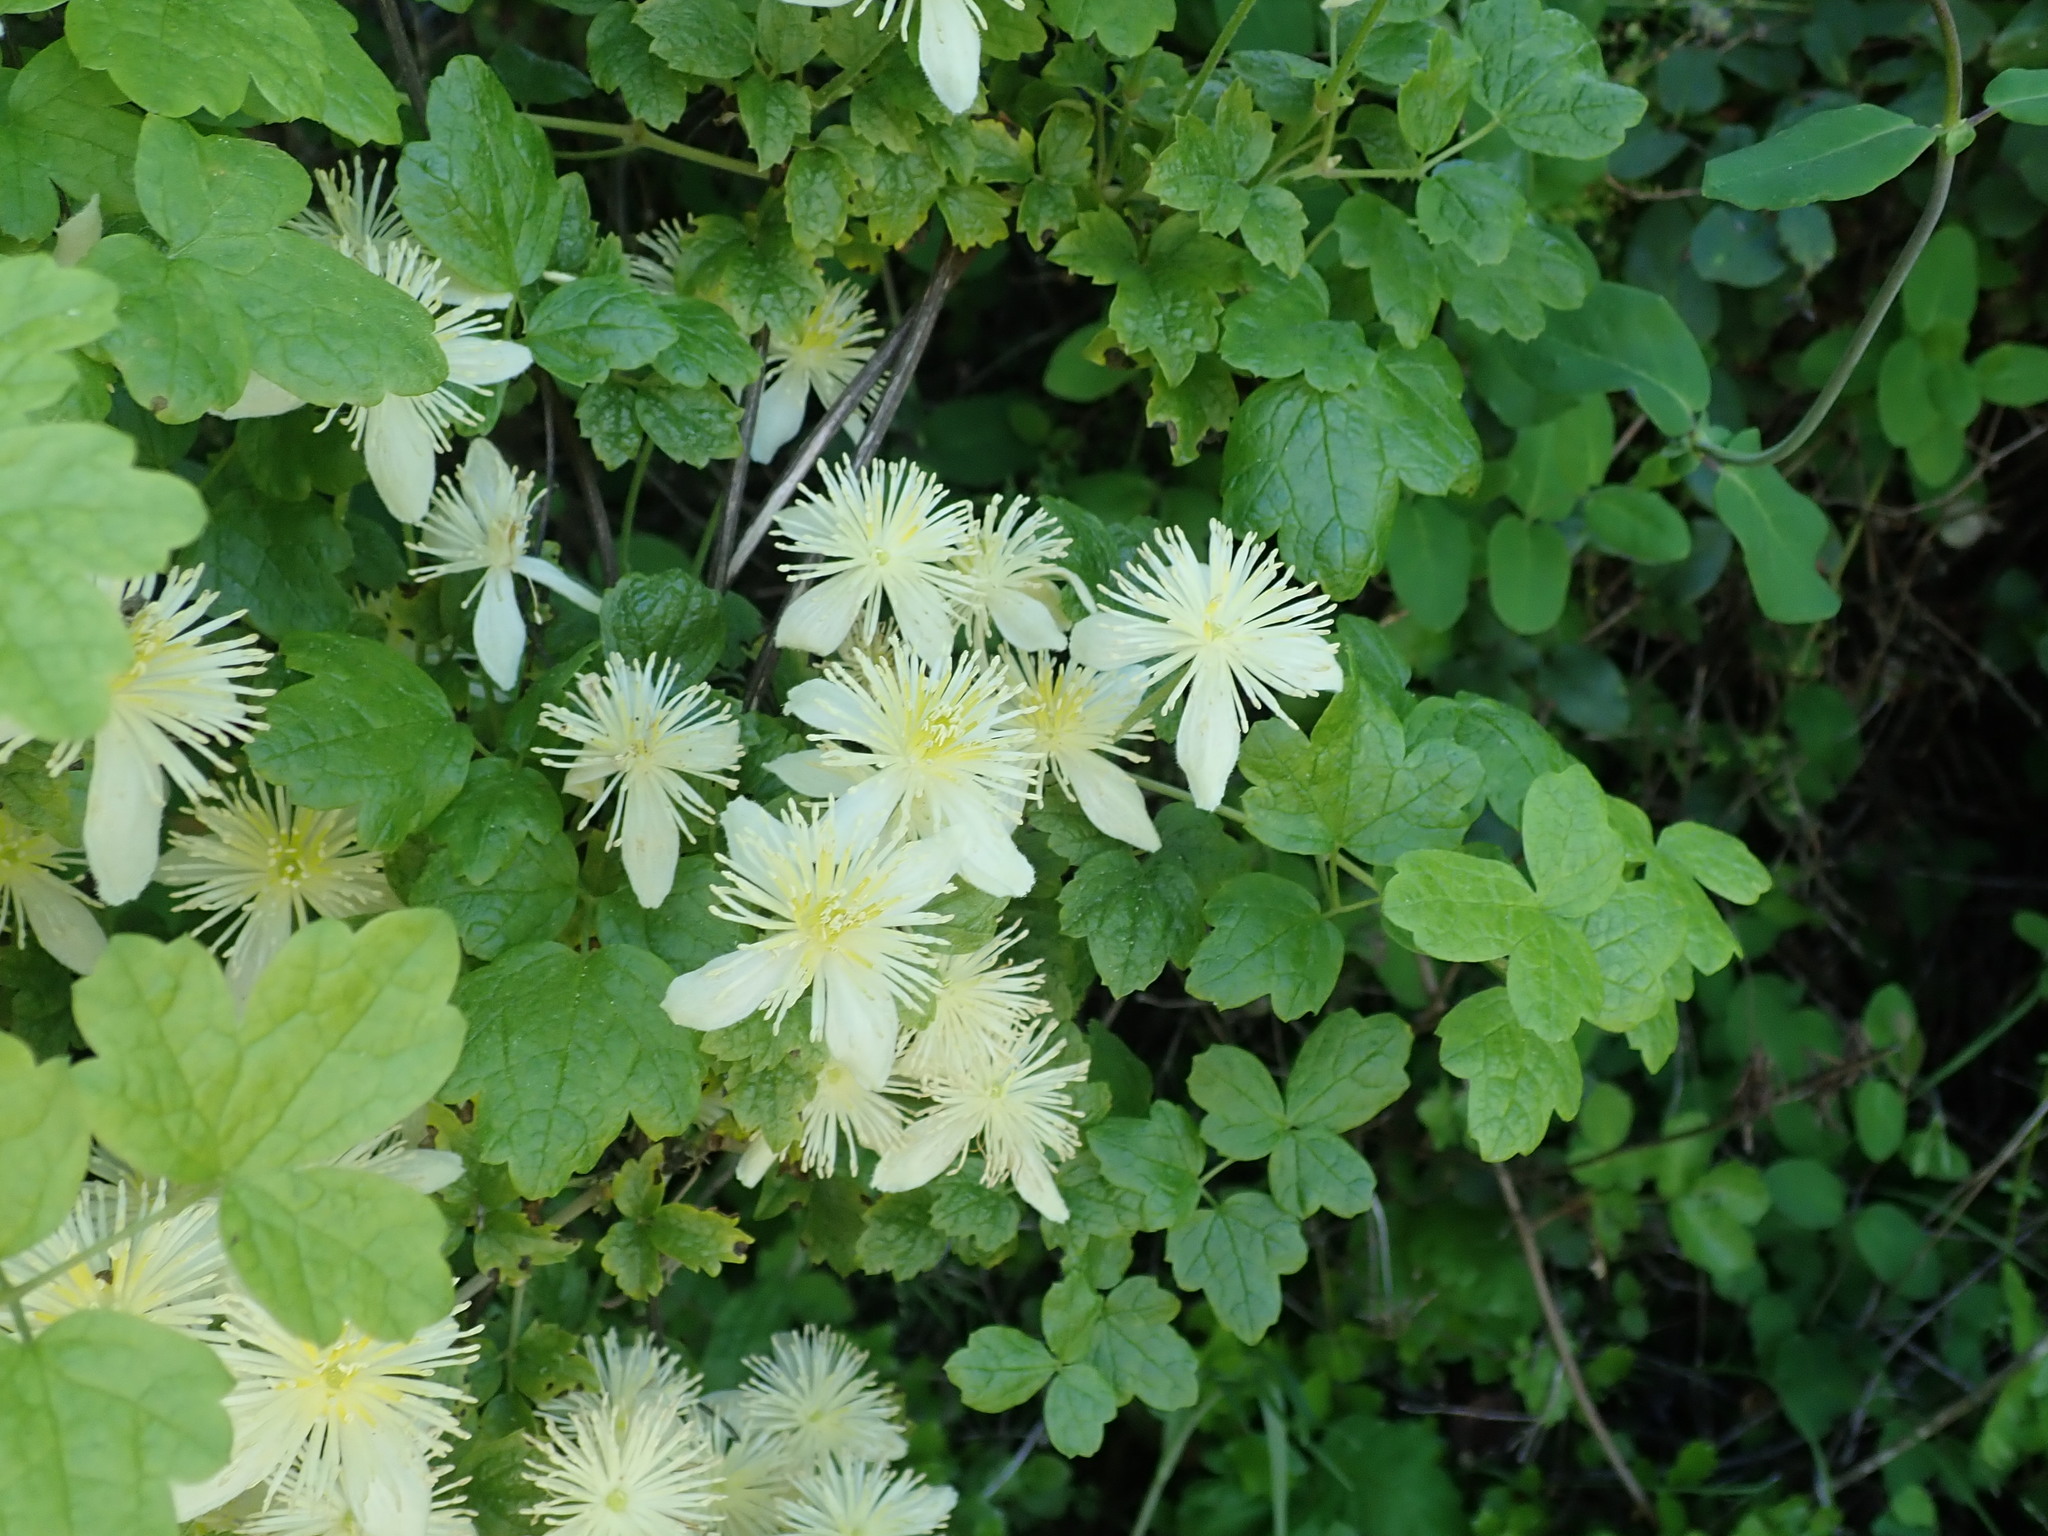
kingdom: Plantae
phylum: Tracheophyta
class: Magnoliopsida
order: Ranunculales
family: Ranunculaceae
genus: Clematis
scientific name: Clematis lasiantha
